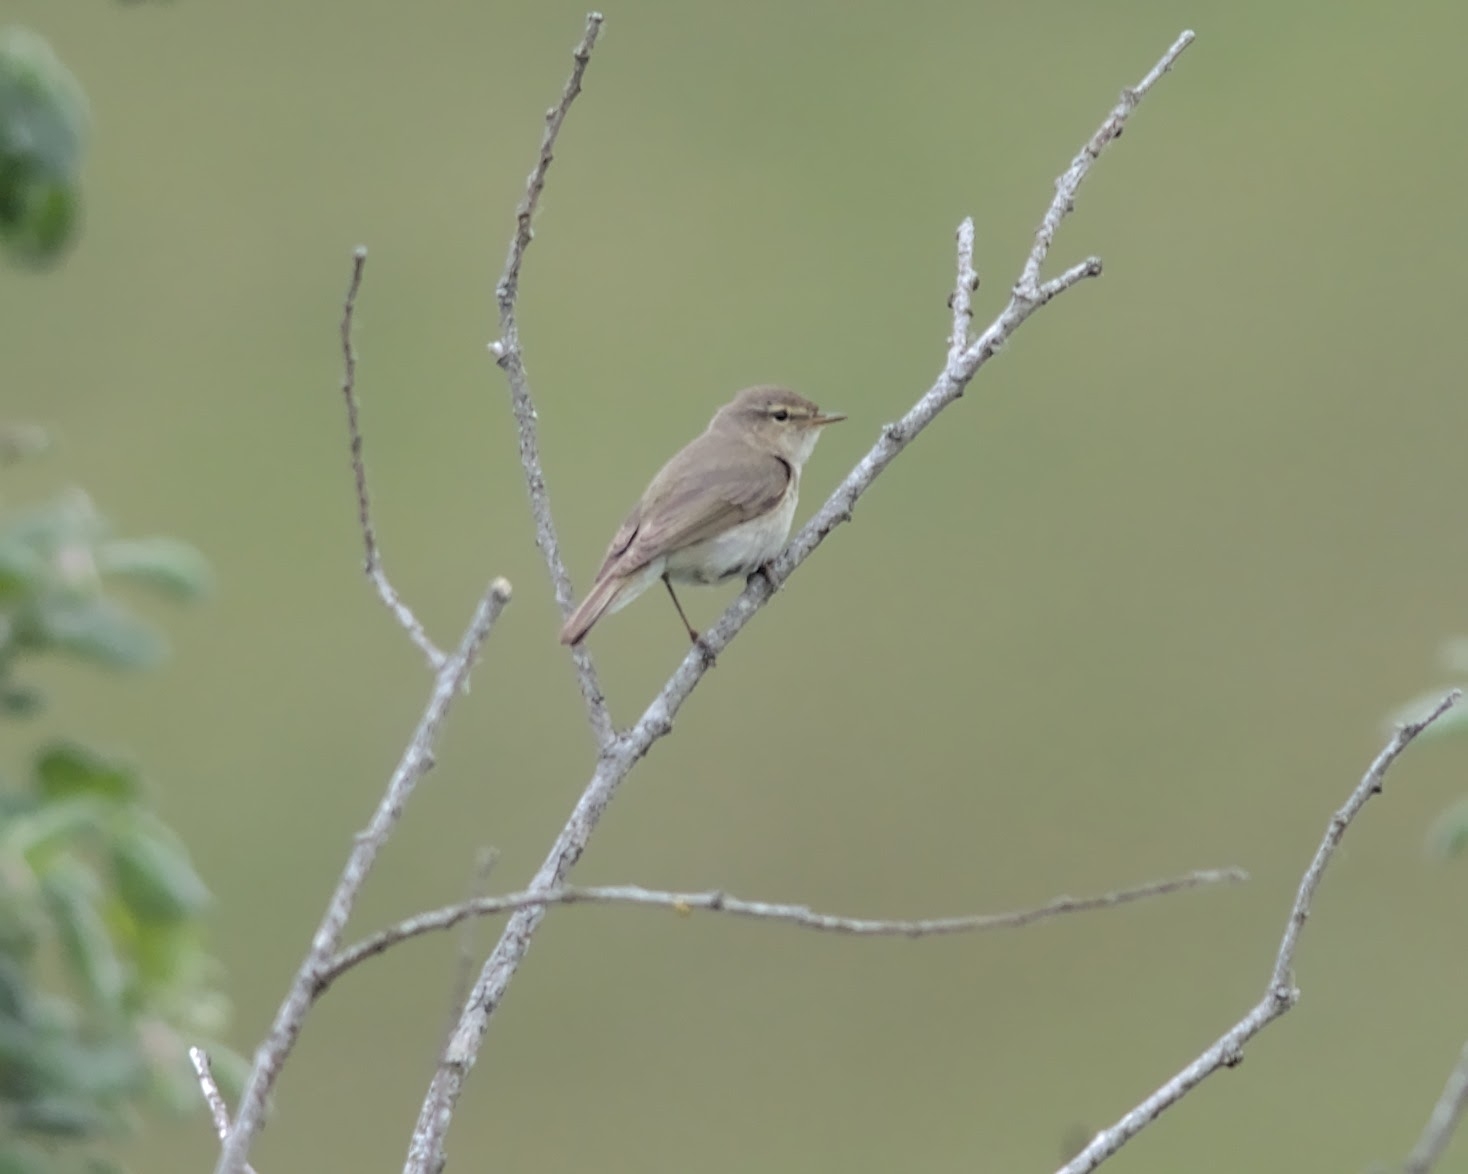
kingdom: Animalia
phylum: Chordata
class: Aves
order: Passeriformes
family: Phylloscopidae
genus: Phylloscopus
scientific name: Phylloscopus collybita
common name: Common chiffchaff
